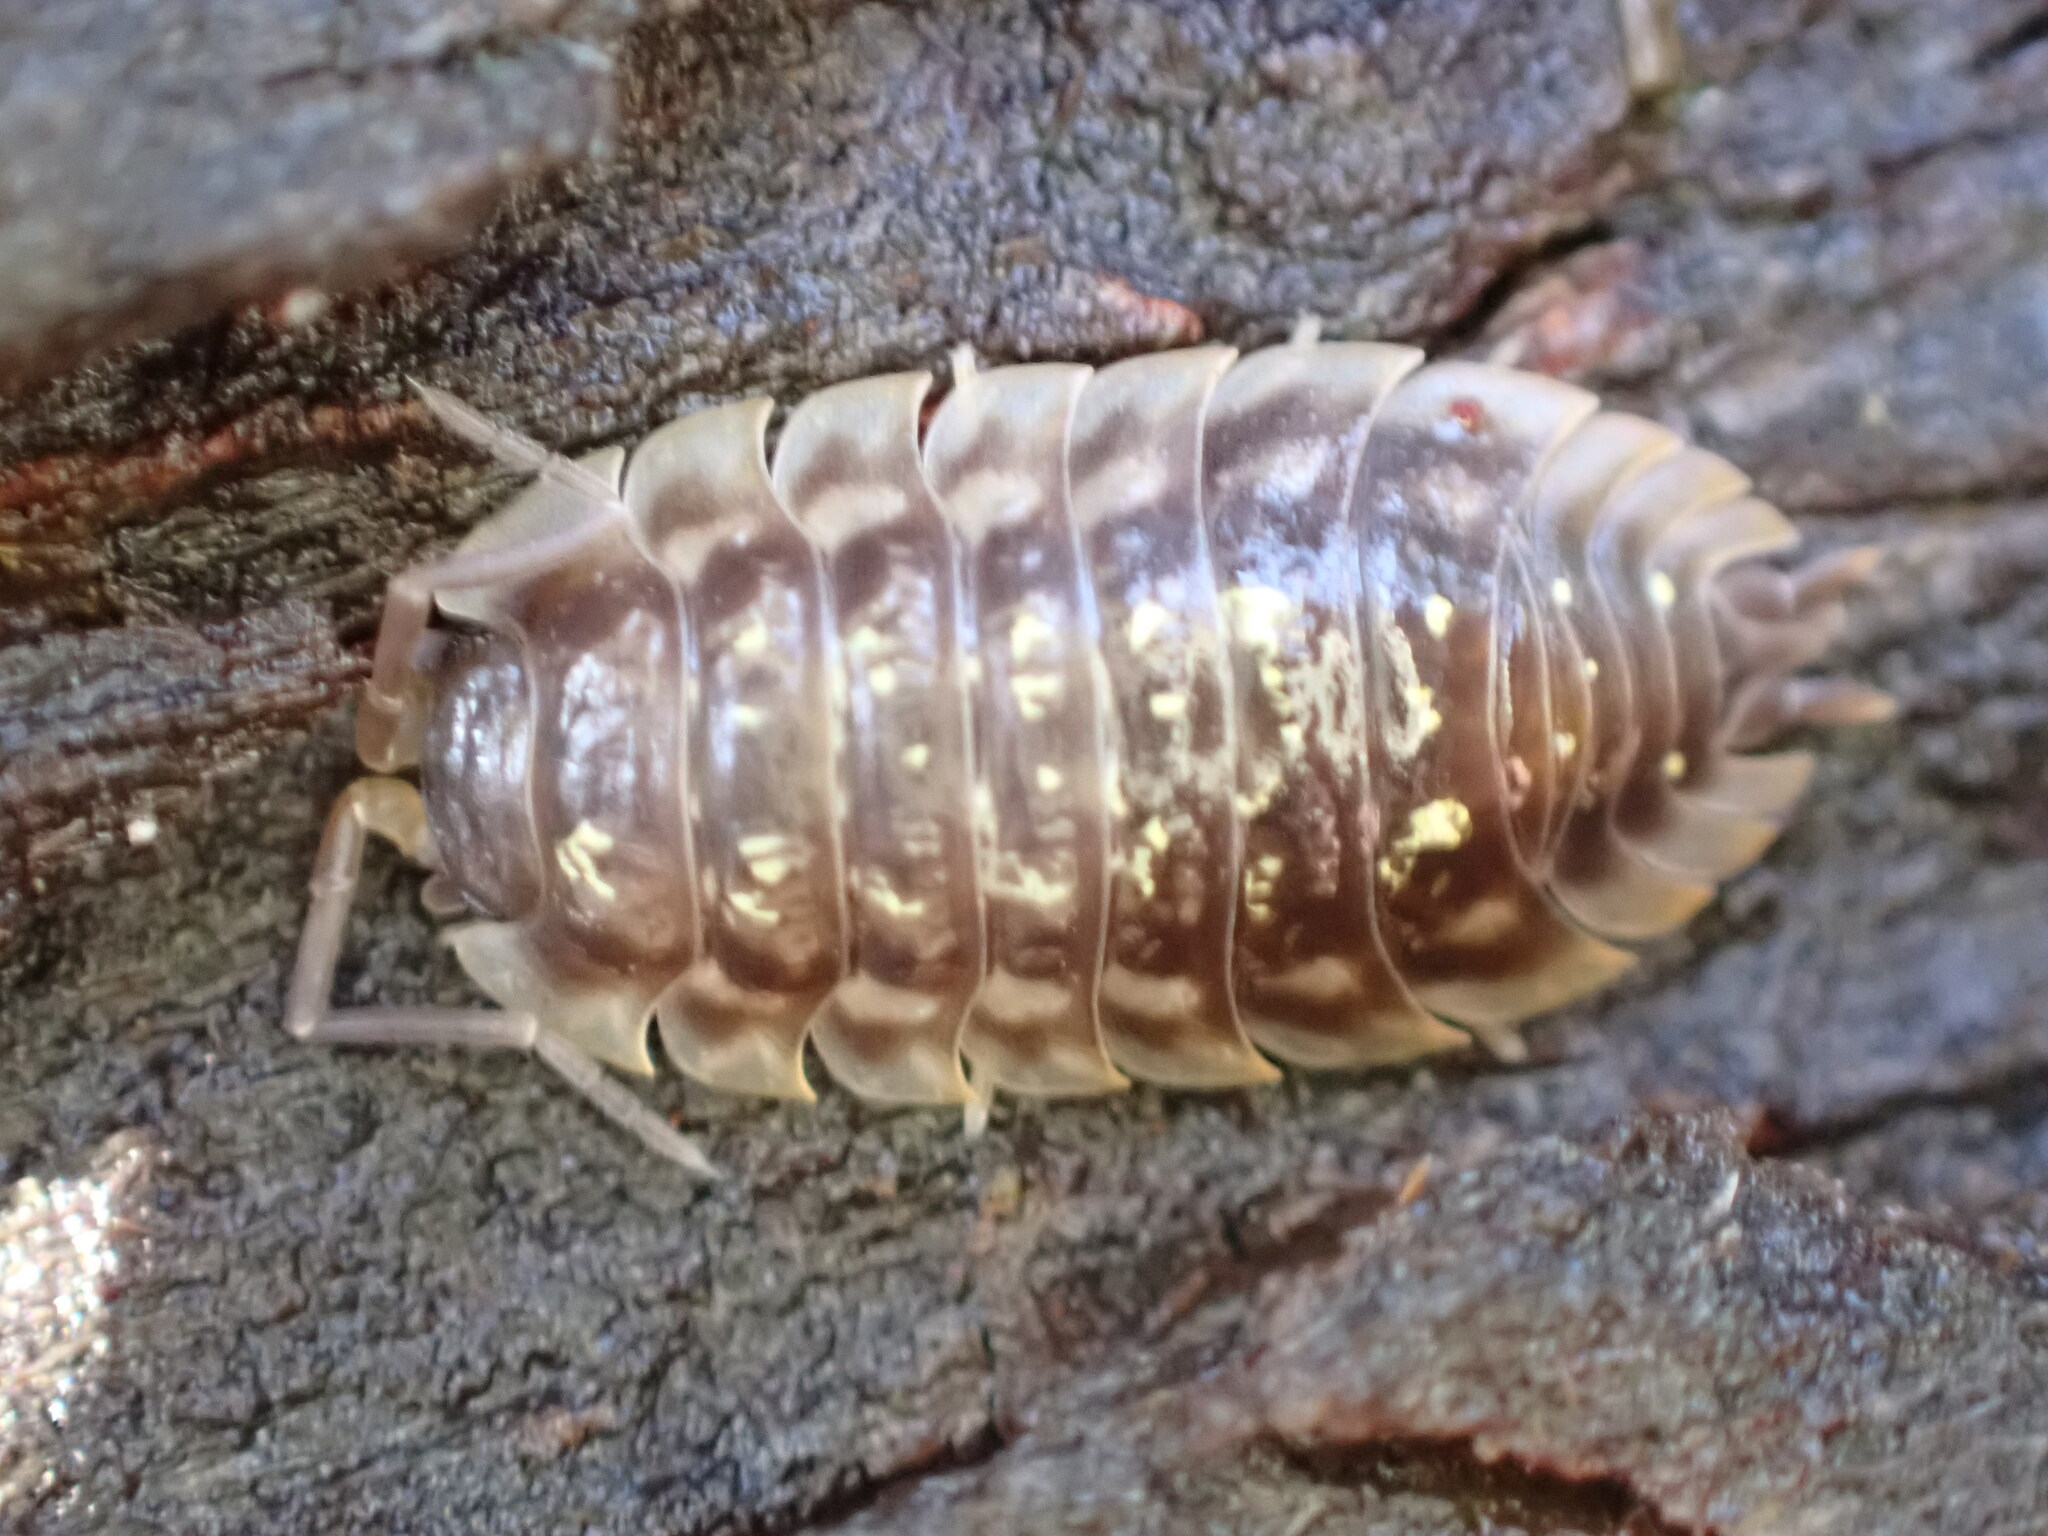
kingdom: Animalia
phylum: Arthropoda
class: Malacostraca
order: Isopoda
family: Oniscidae
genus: Oniscus
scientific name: Oniscus asellus
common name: Common shiny woodlouse
